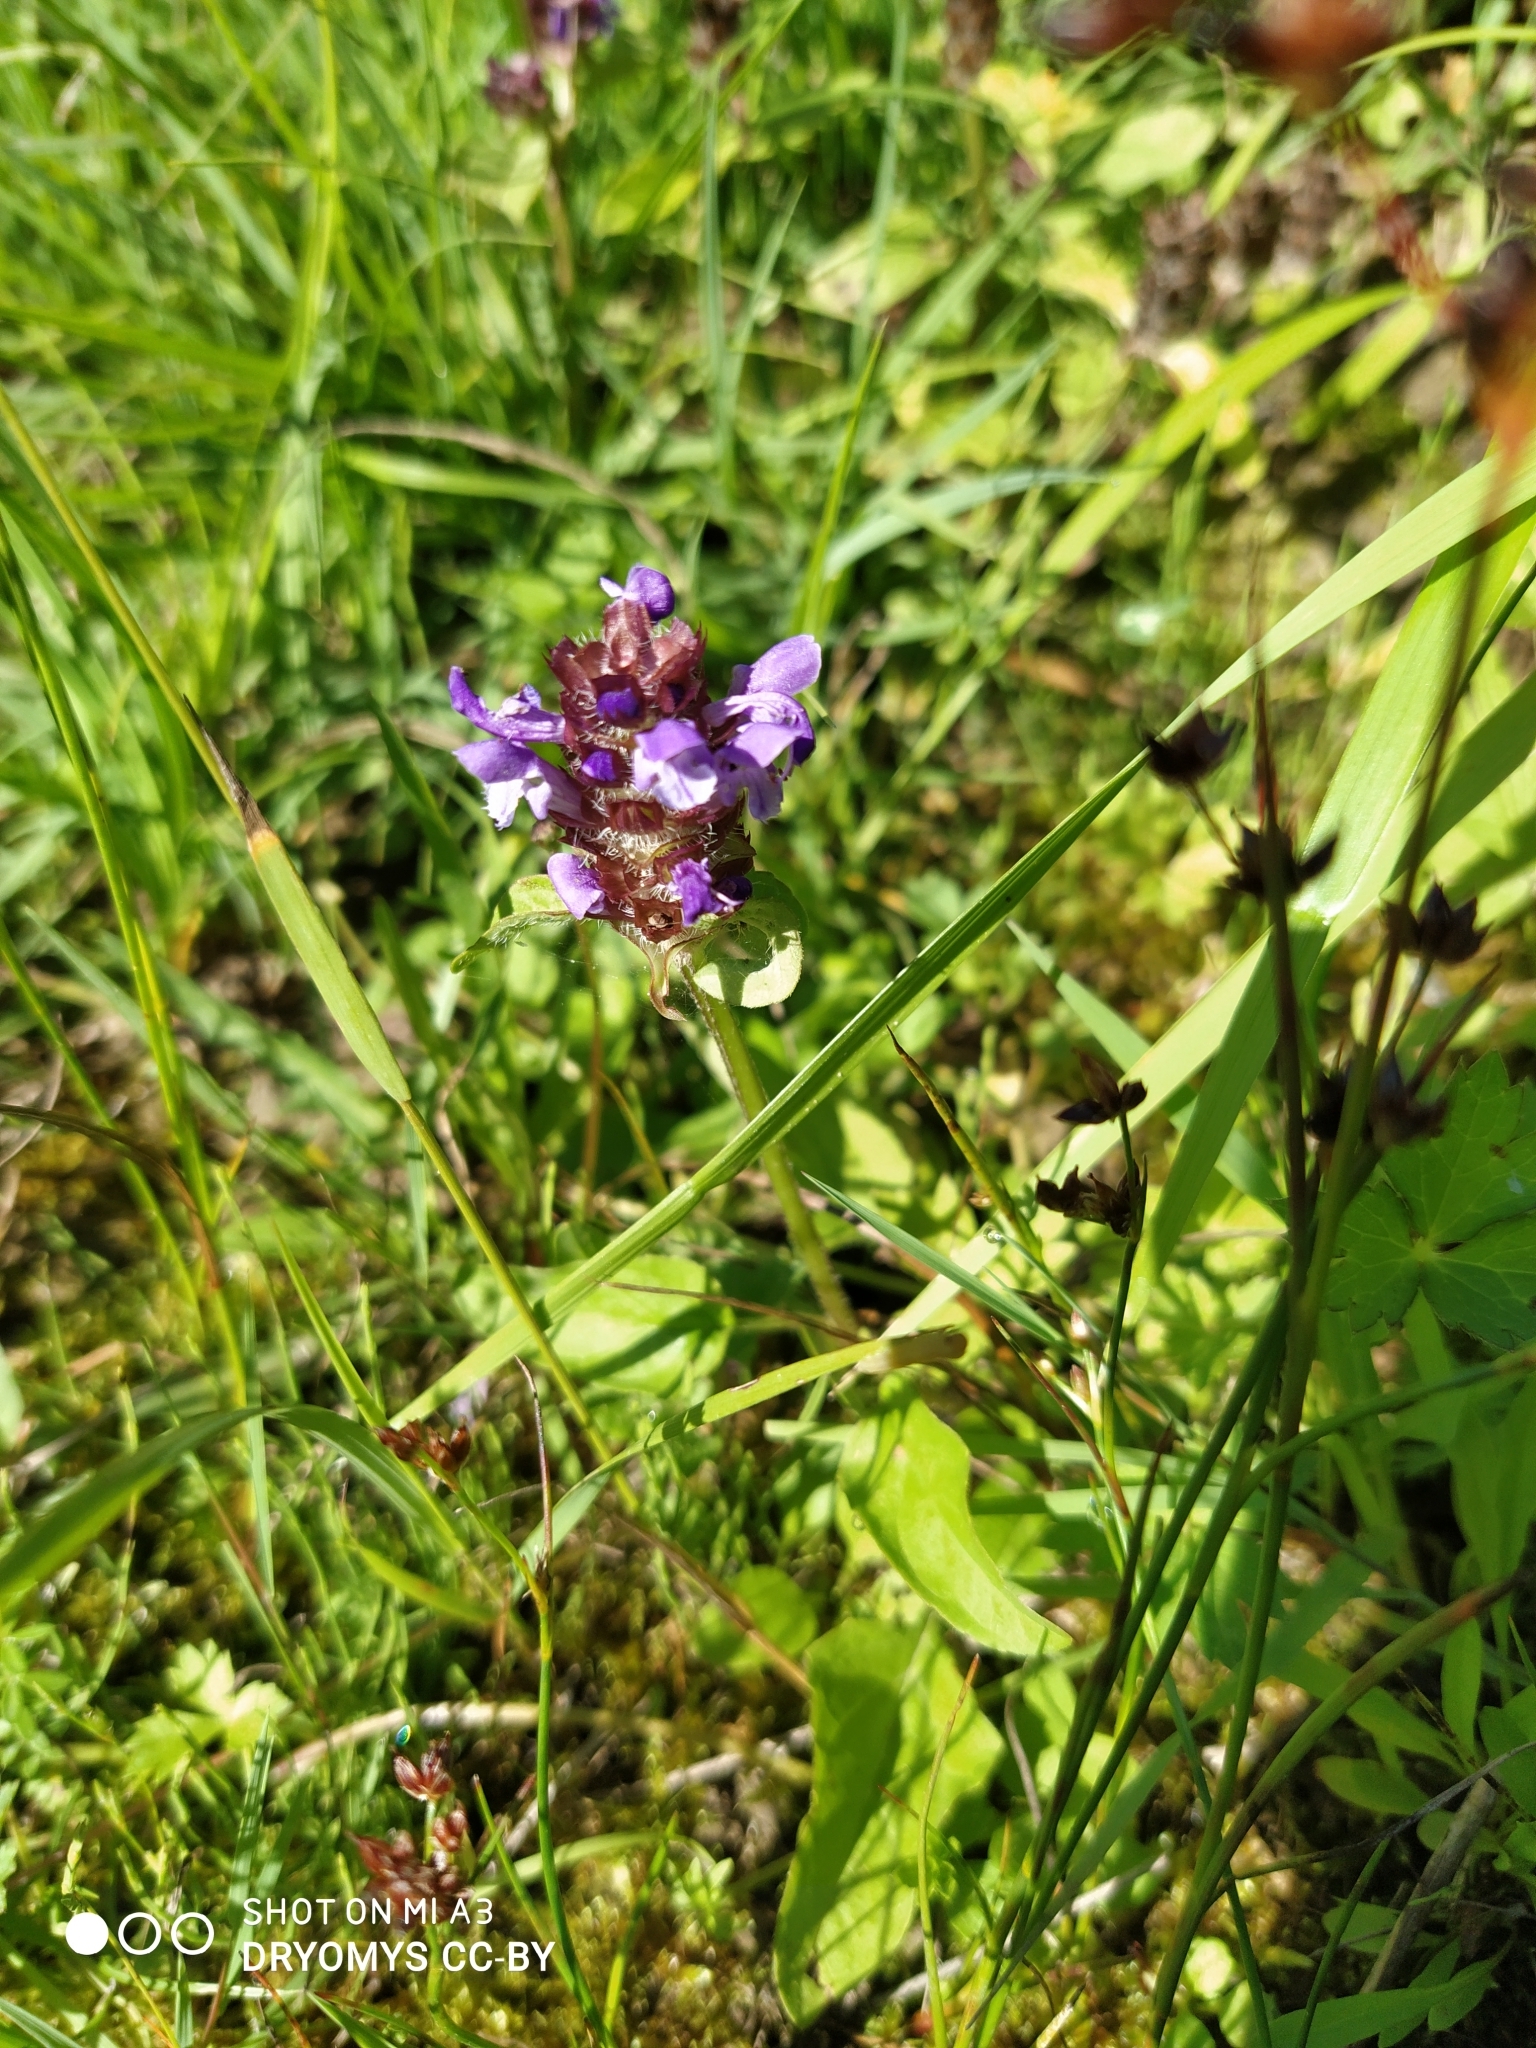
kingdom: Plantae
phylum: Tracheophyta
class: Magnoliopsida
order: Lamiales
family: Lamiaceae
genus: Prunella
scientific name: Prunella vulgaris
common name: Heal-all
